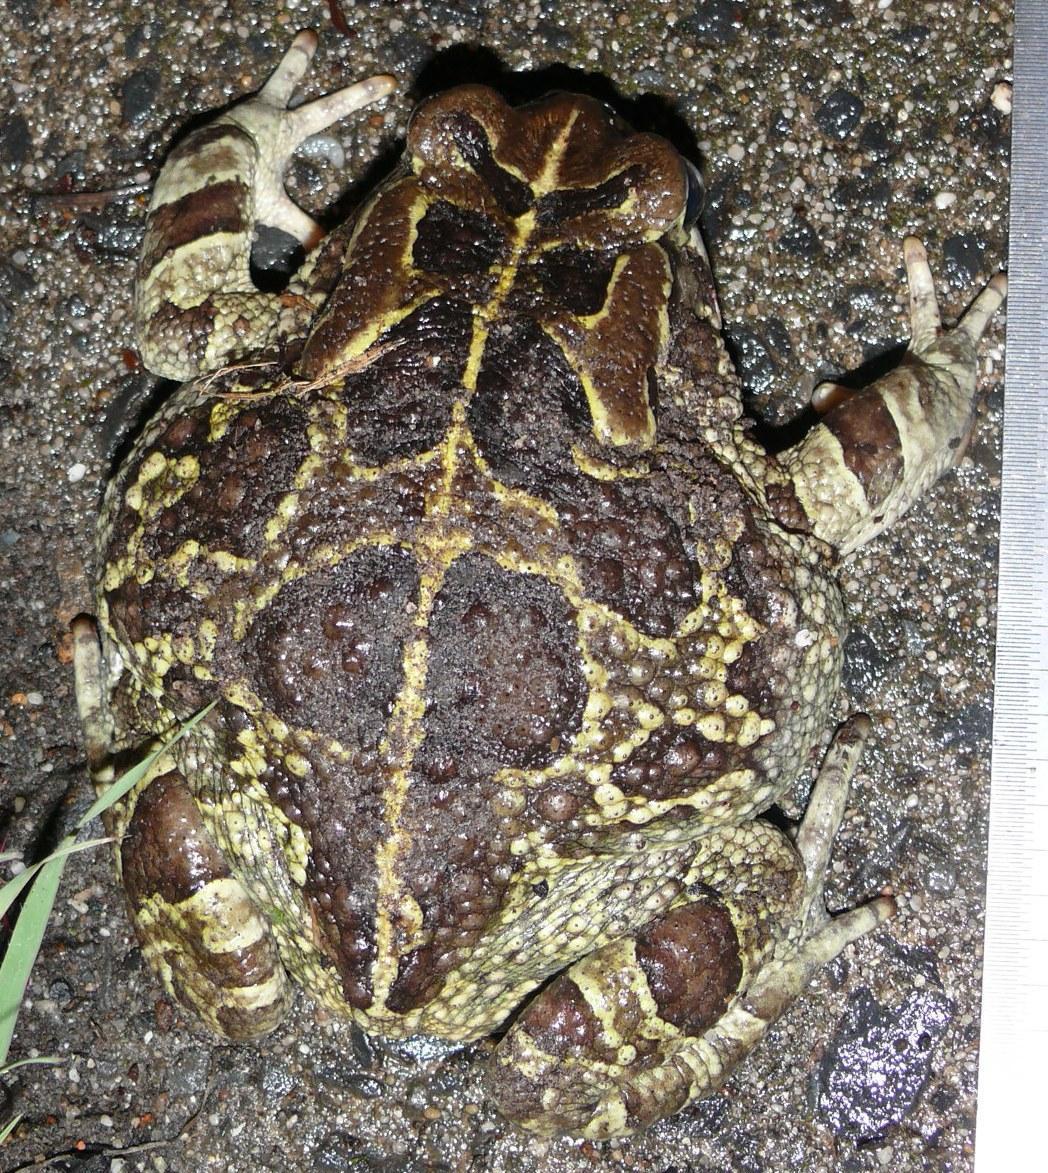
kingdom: Animalia
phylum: Chordata
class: Amphibia
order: Anura
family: Bufonidae
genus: Sclerophrys
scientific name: Sclerophrys pantherina
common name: Panther toad
